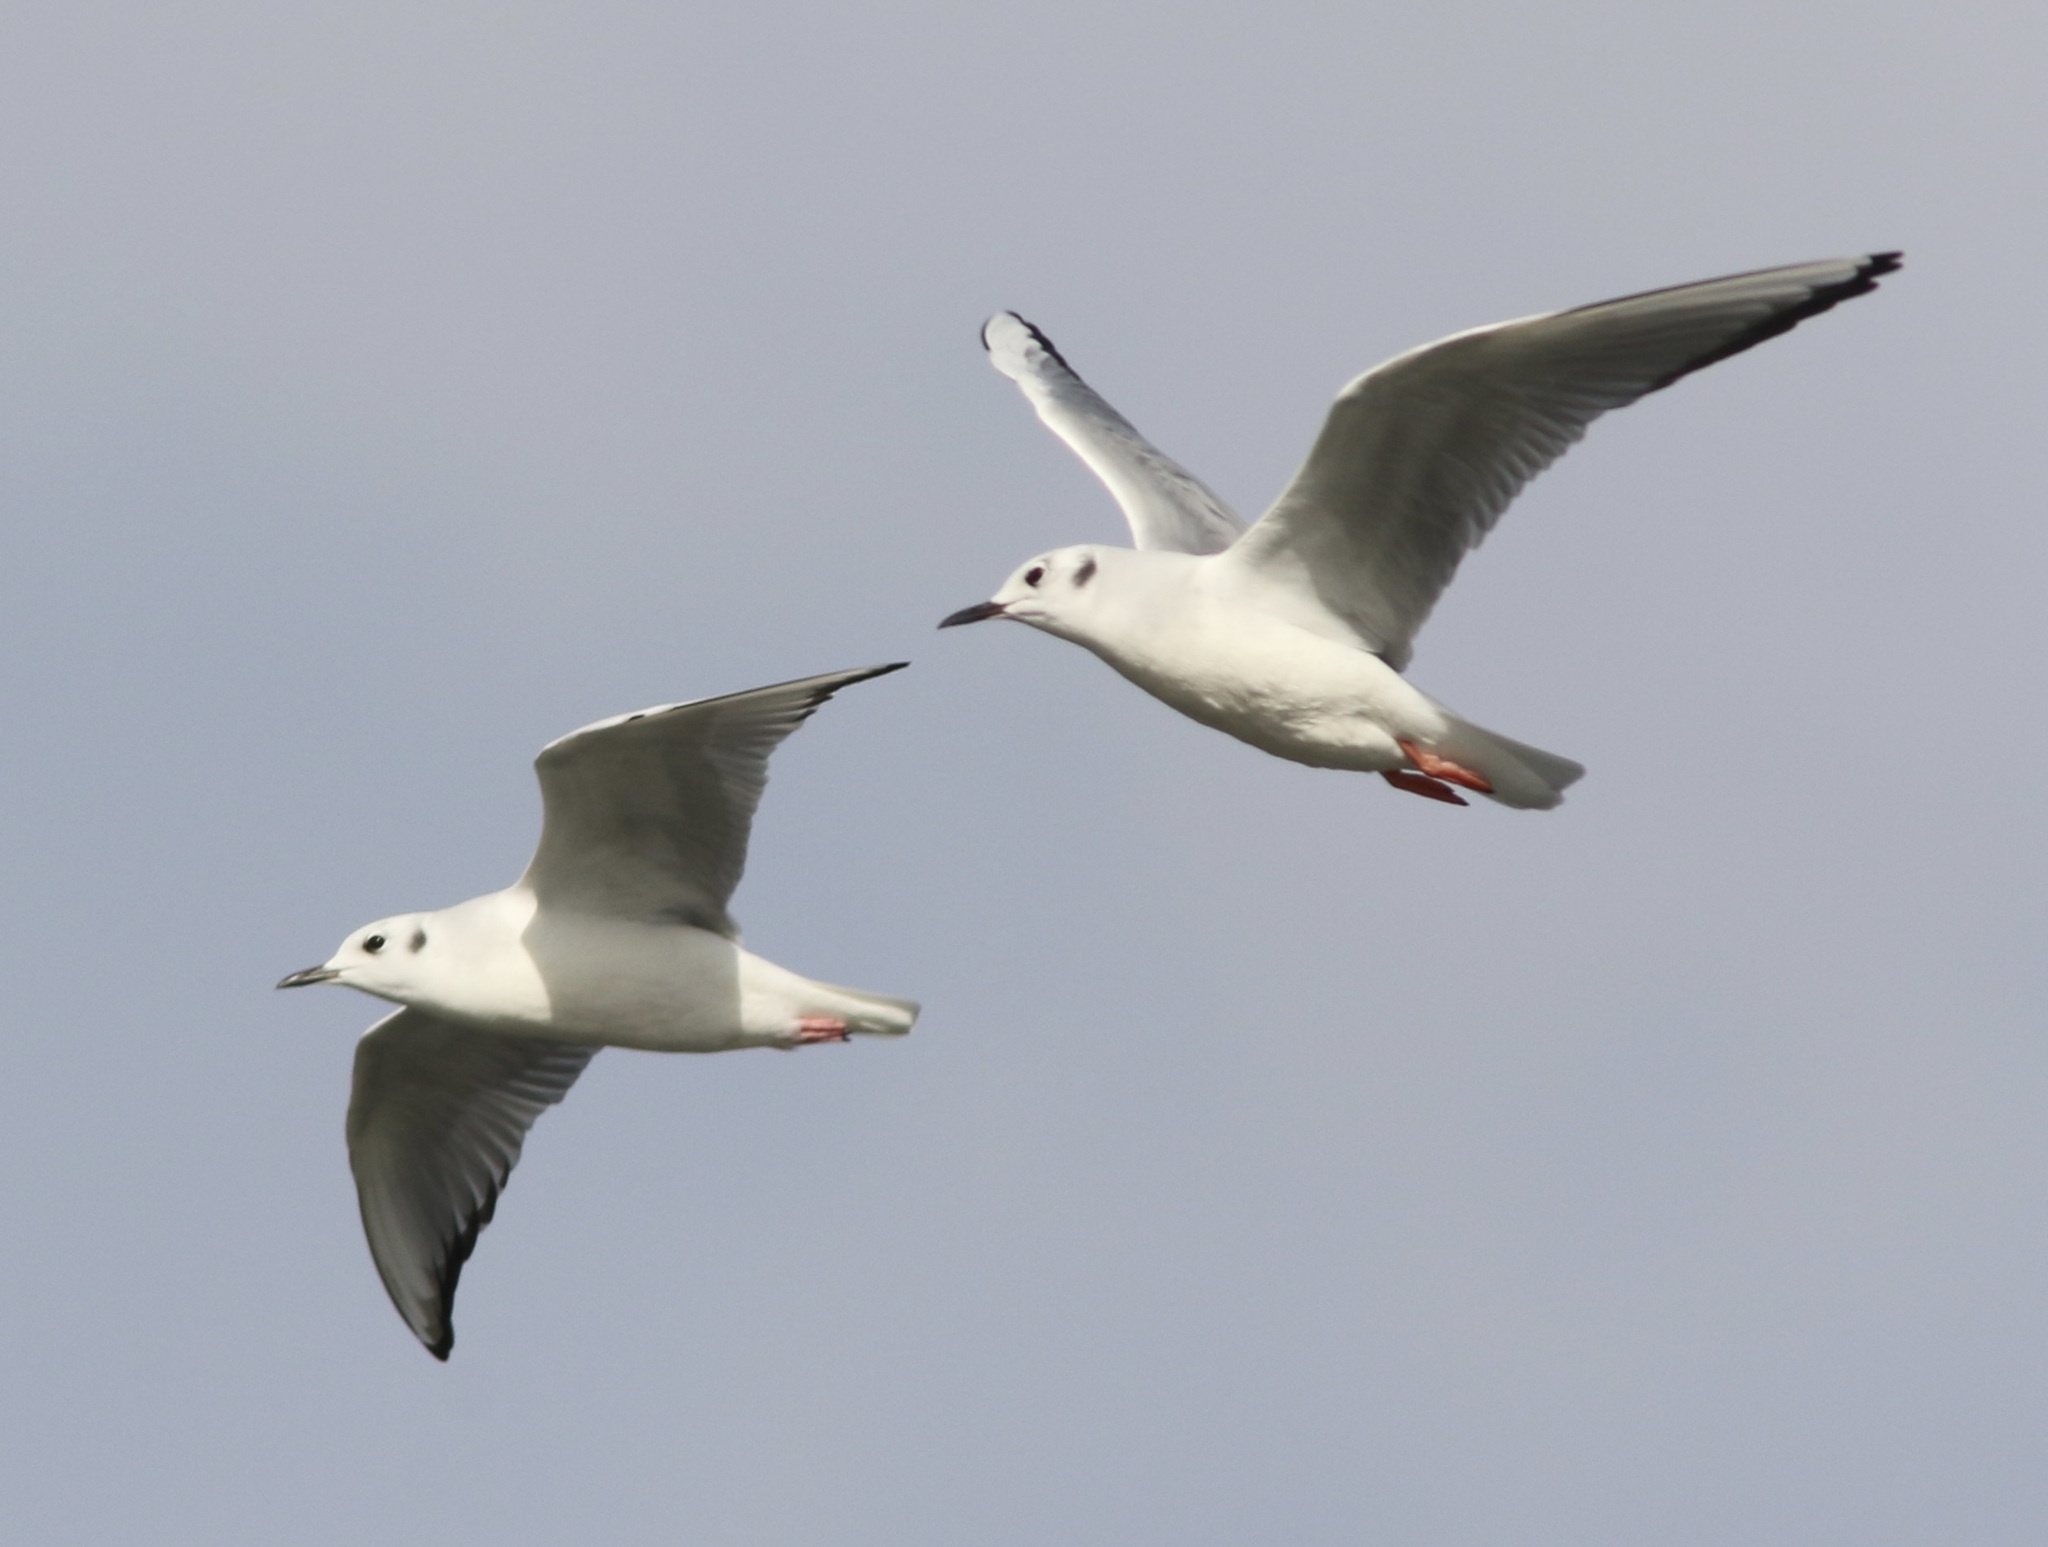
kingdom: Animalia
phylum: Chordata
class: Aves
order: Charadriiformes
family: Laridae
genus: Chroicocephalus
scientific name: Chroicocephalus philadelphia
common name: Bonaparte's gull
